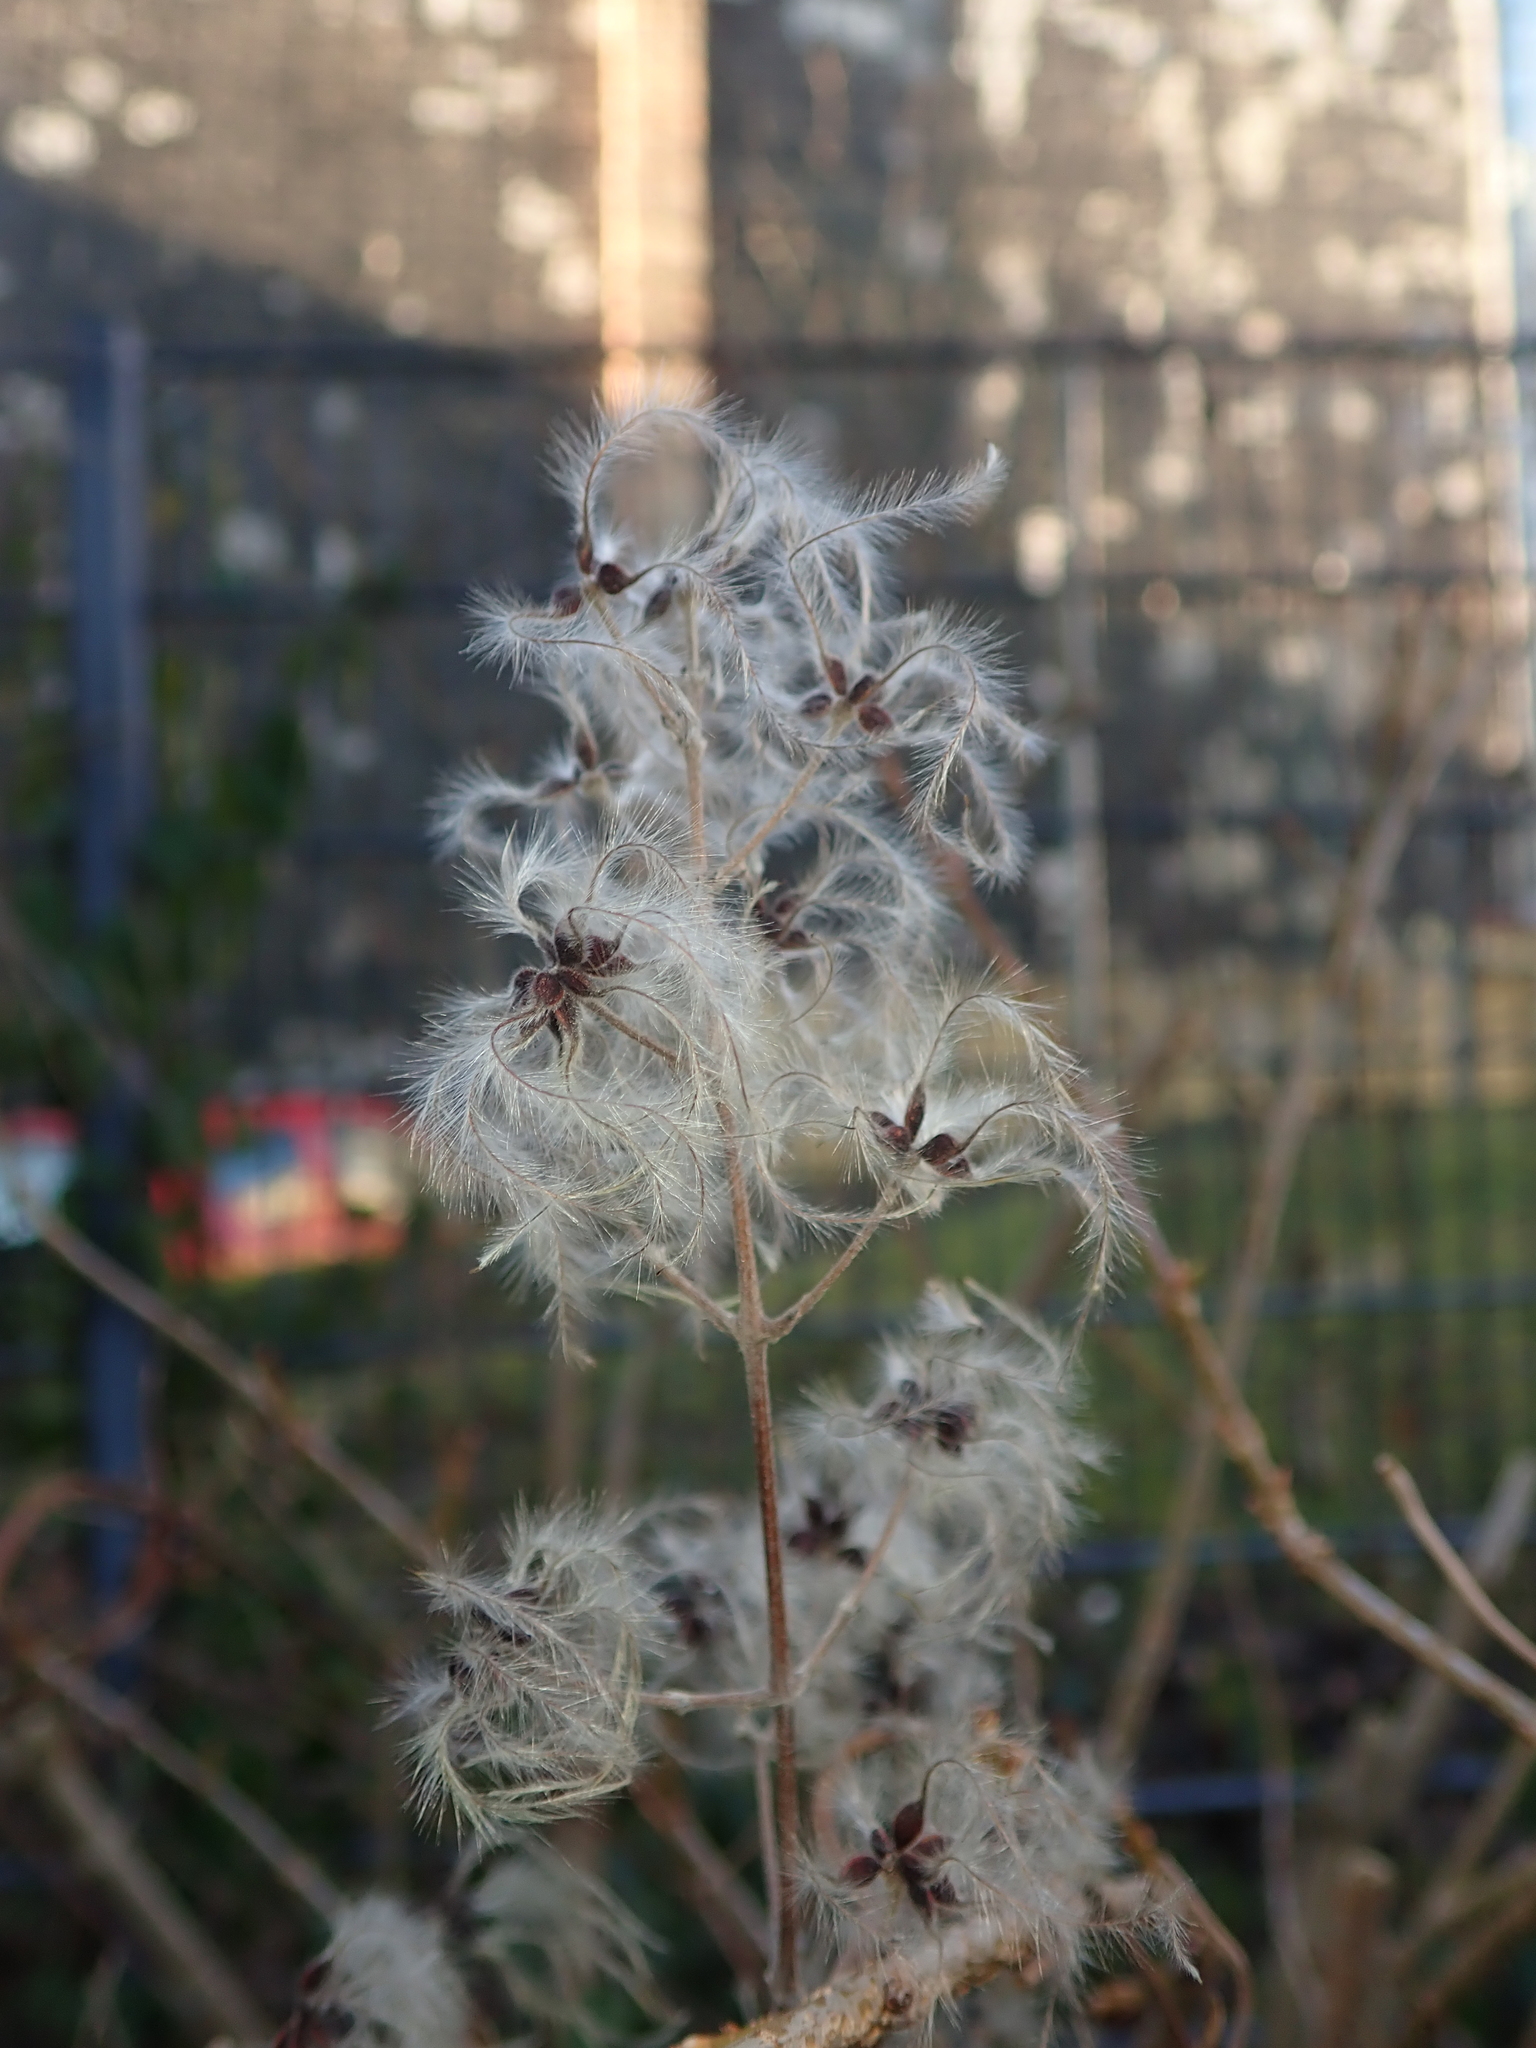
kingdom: Plantae
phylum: Tracheophyta
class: Magnoliopsida
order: Ranunculales
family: Ranunculaceae
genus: Clematis
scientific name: Clematis vitalba
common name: Evergreen clematis
